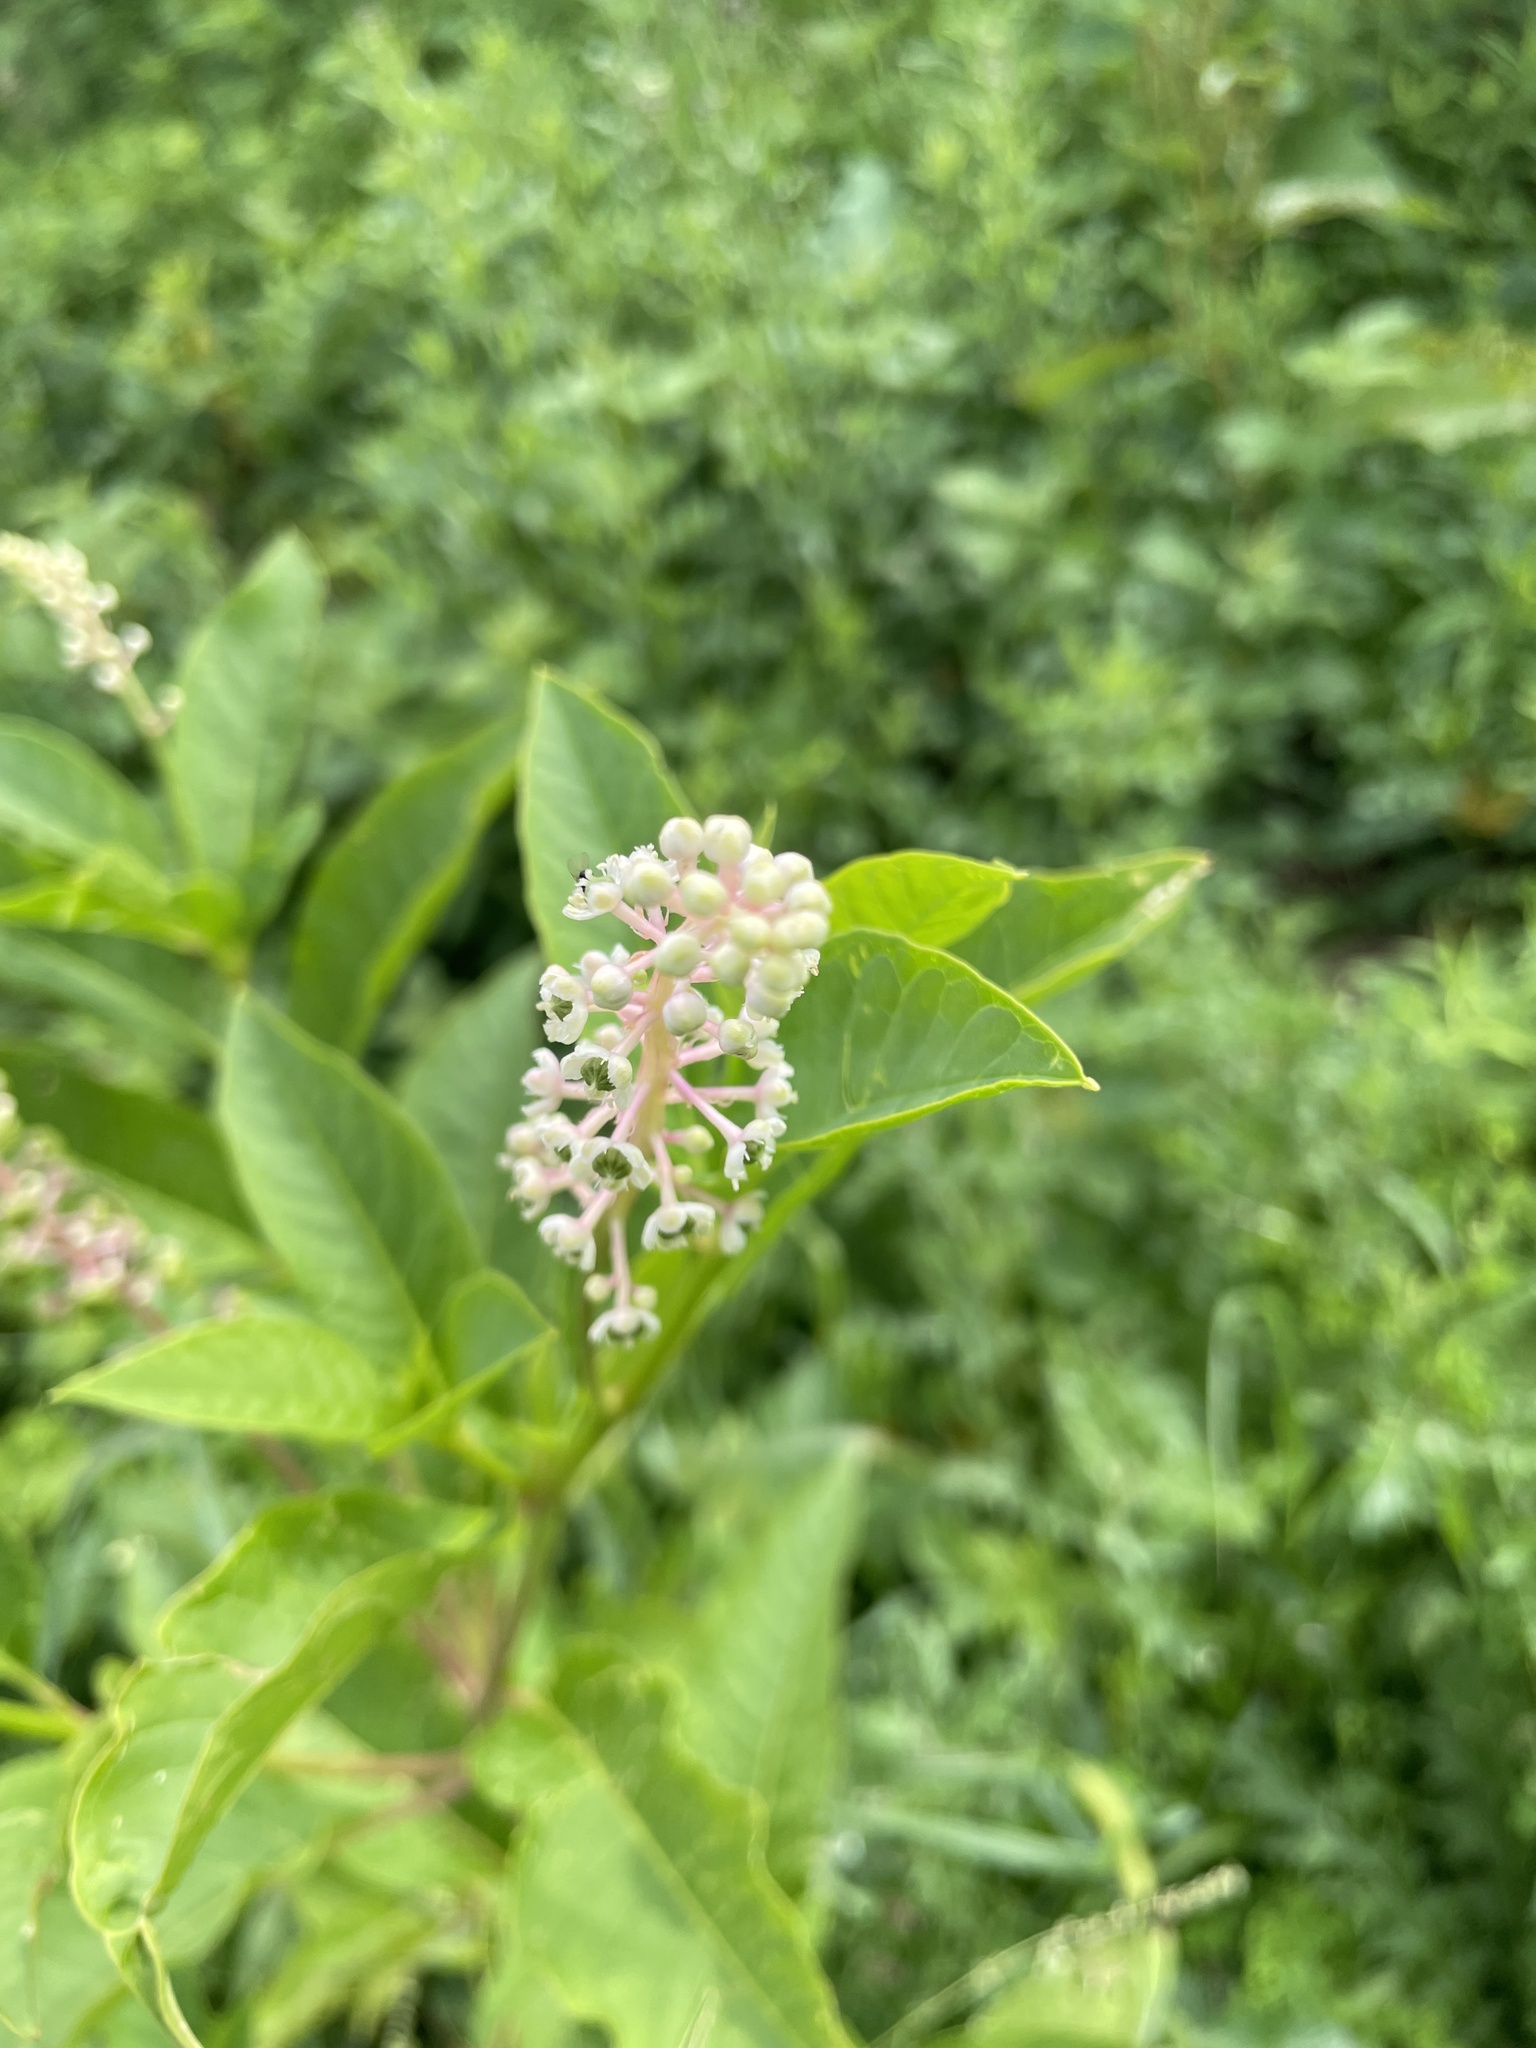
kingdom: Plantae
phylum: Tracheophyta
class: Magnoliopsida
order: Caryophyllales
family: Phytolaccaceae
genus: Phytolacca
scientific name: Phytolacca americana
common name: American pokeweed
